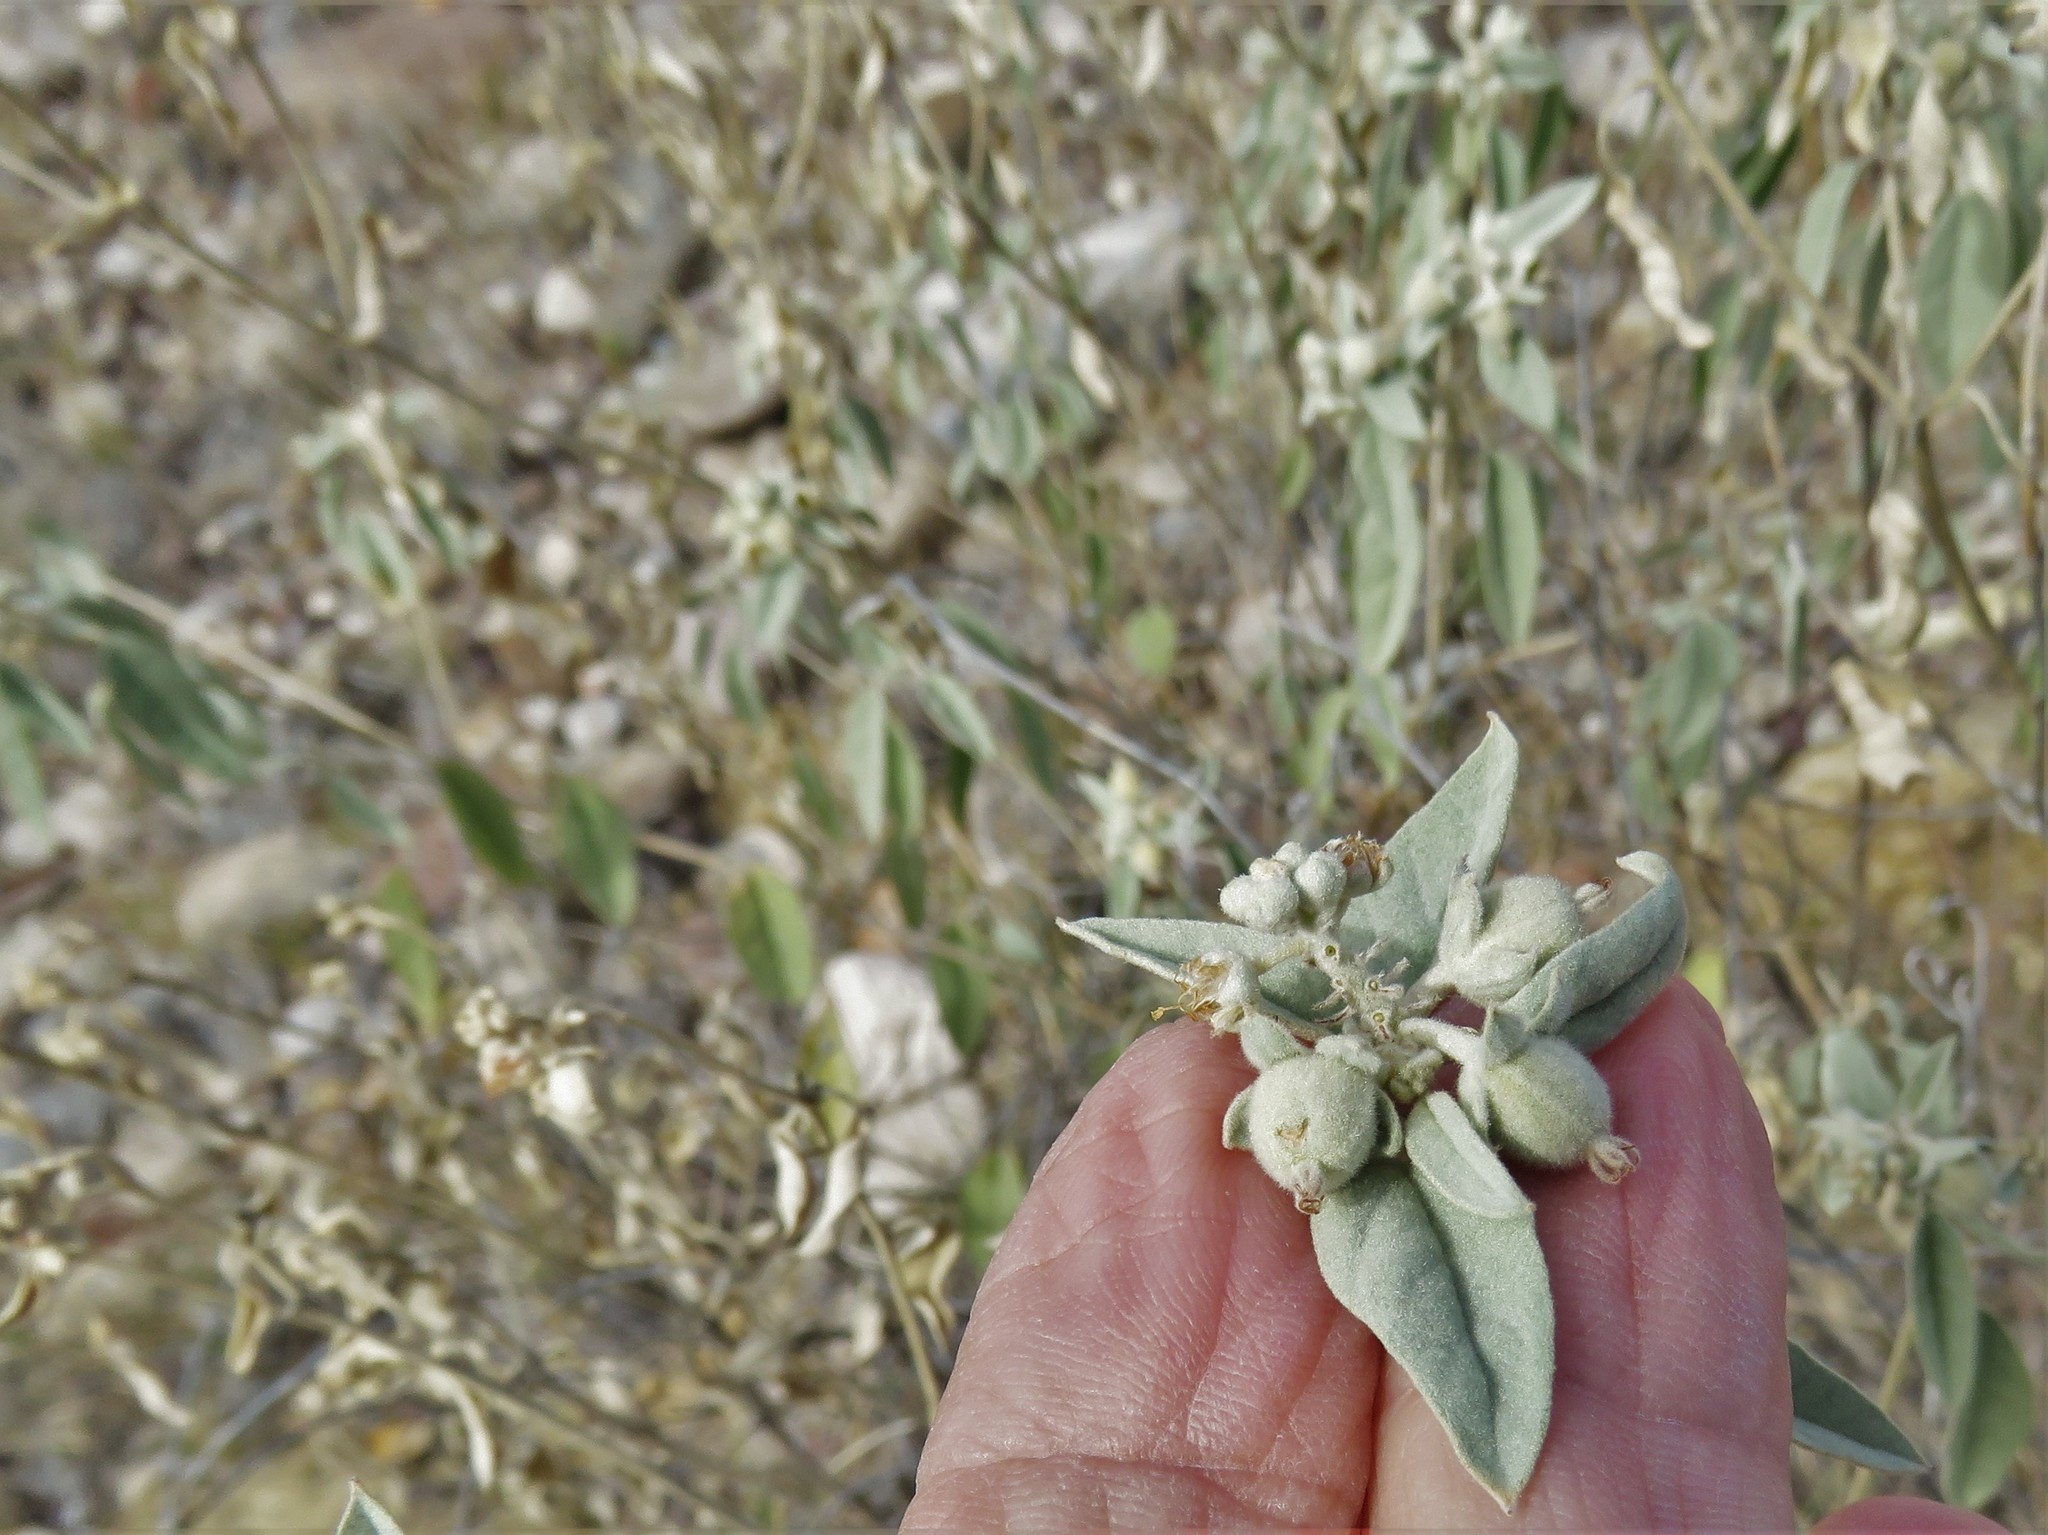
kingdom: Plantae
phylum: Tracheophyta
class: Magnoliopsida
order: Malpighiales
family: Euphorbiaceae
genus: Croton
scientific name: Croton pottsii
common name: Leatherweed
